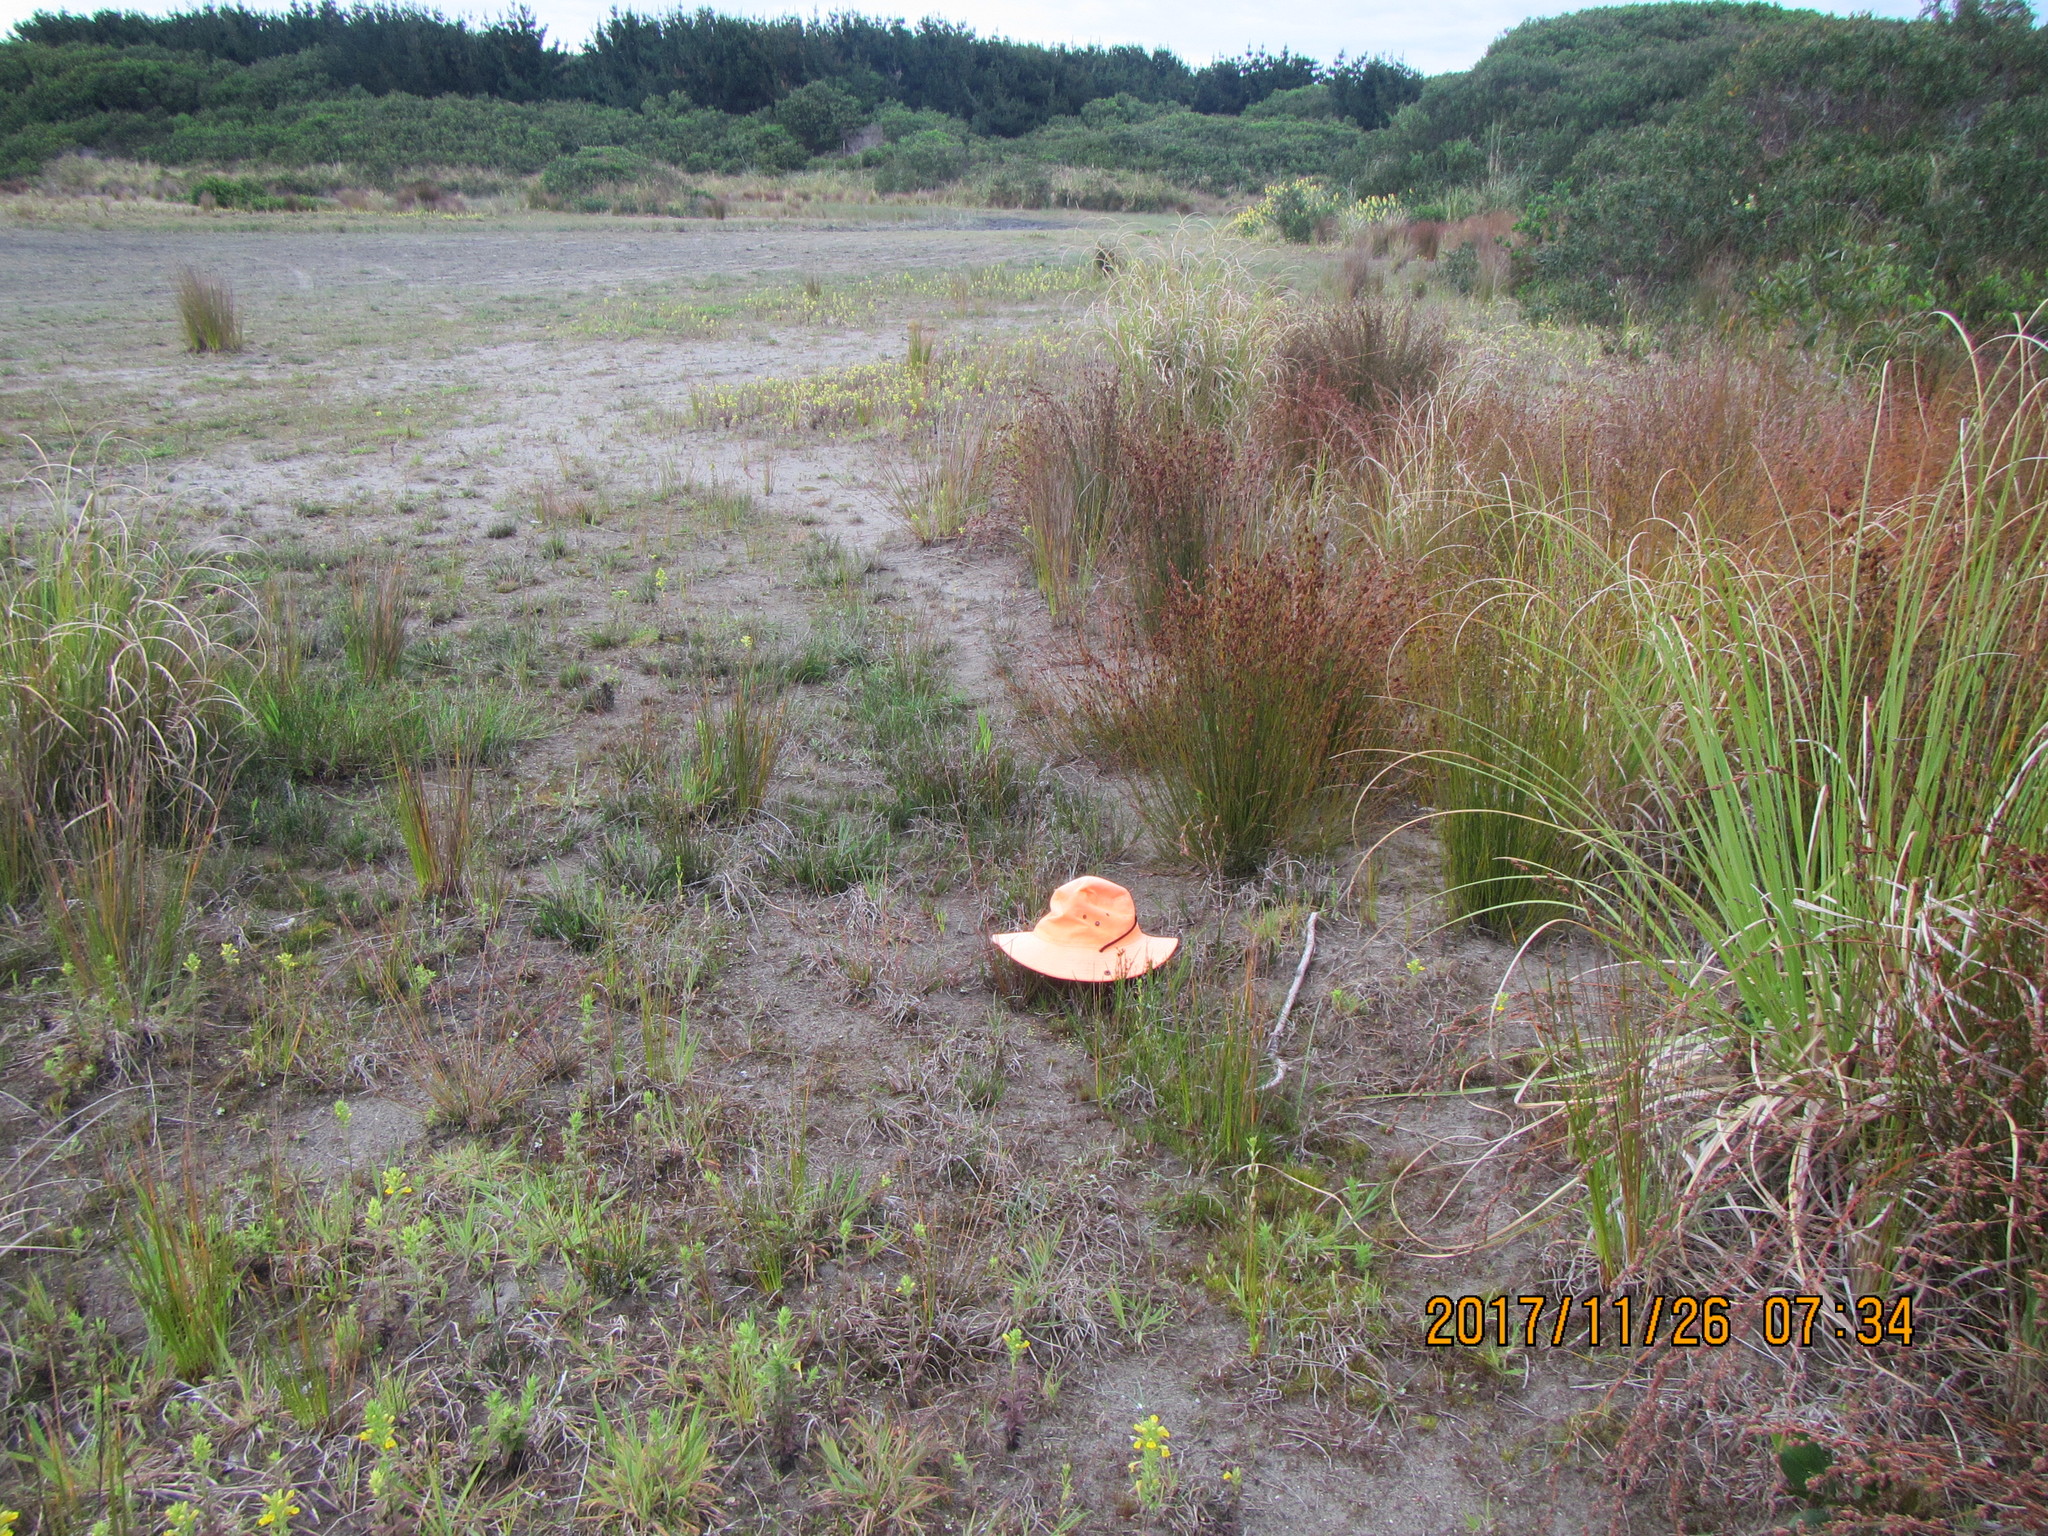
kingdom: Plantae
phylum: Tracheophyta
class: Magnoliopsida
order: Asterales
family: Goodeniaceae
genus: Goodenia
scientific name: Goodenia heenanii
